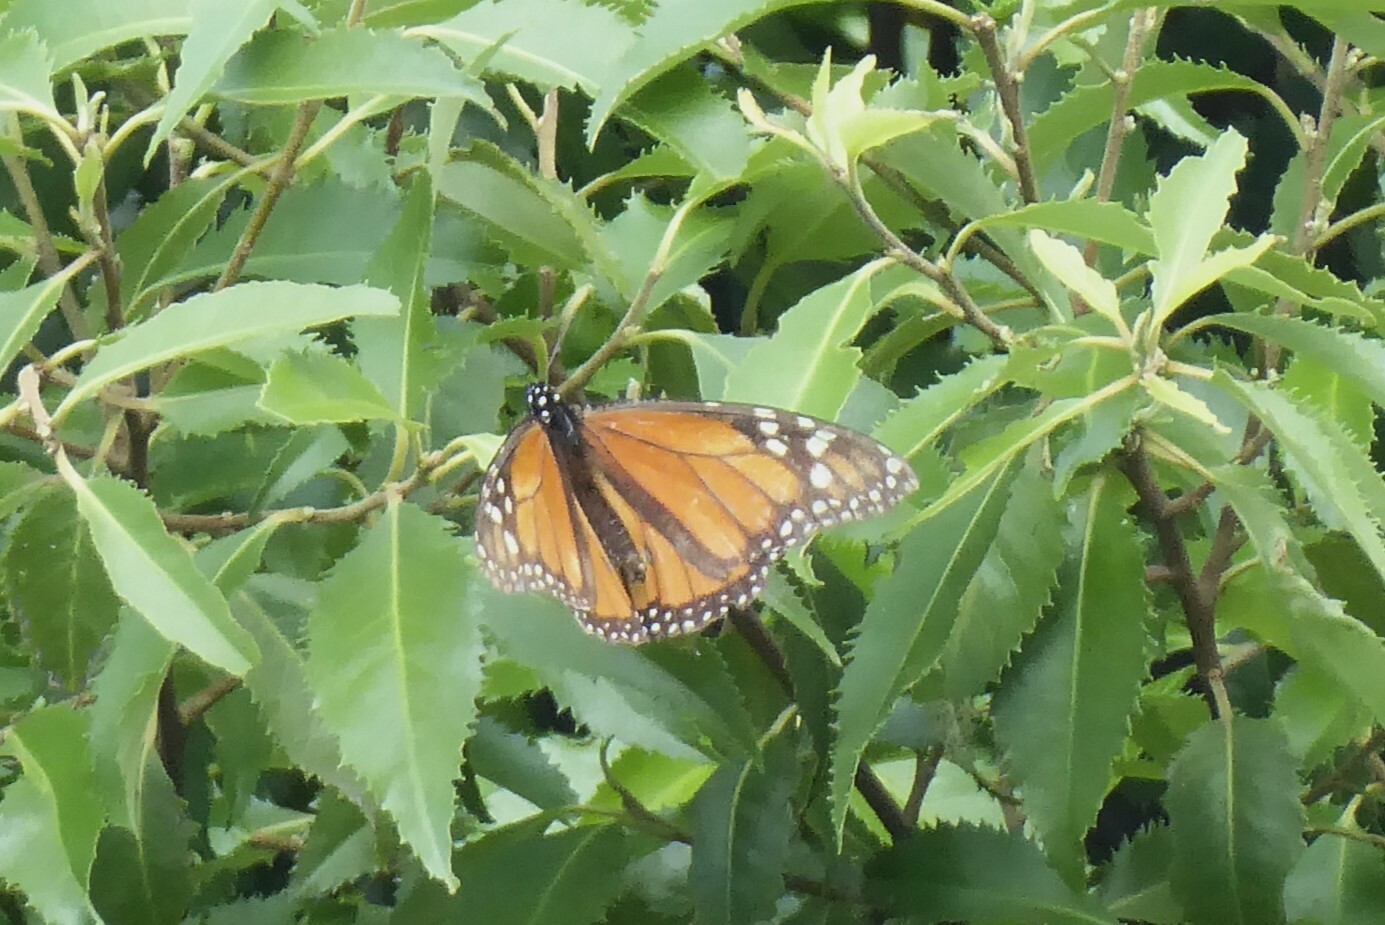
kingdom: Animalia
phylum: Arthropoda
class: Insecta
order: Lepidoptera
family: Nymphalidae
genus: Danaus
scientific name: Danaus plexippus
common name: Monarch
